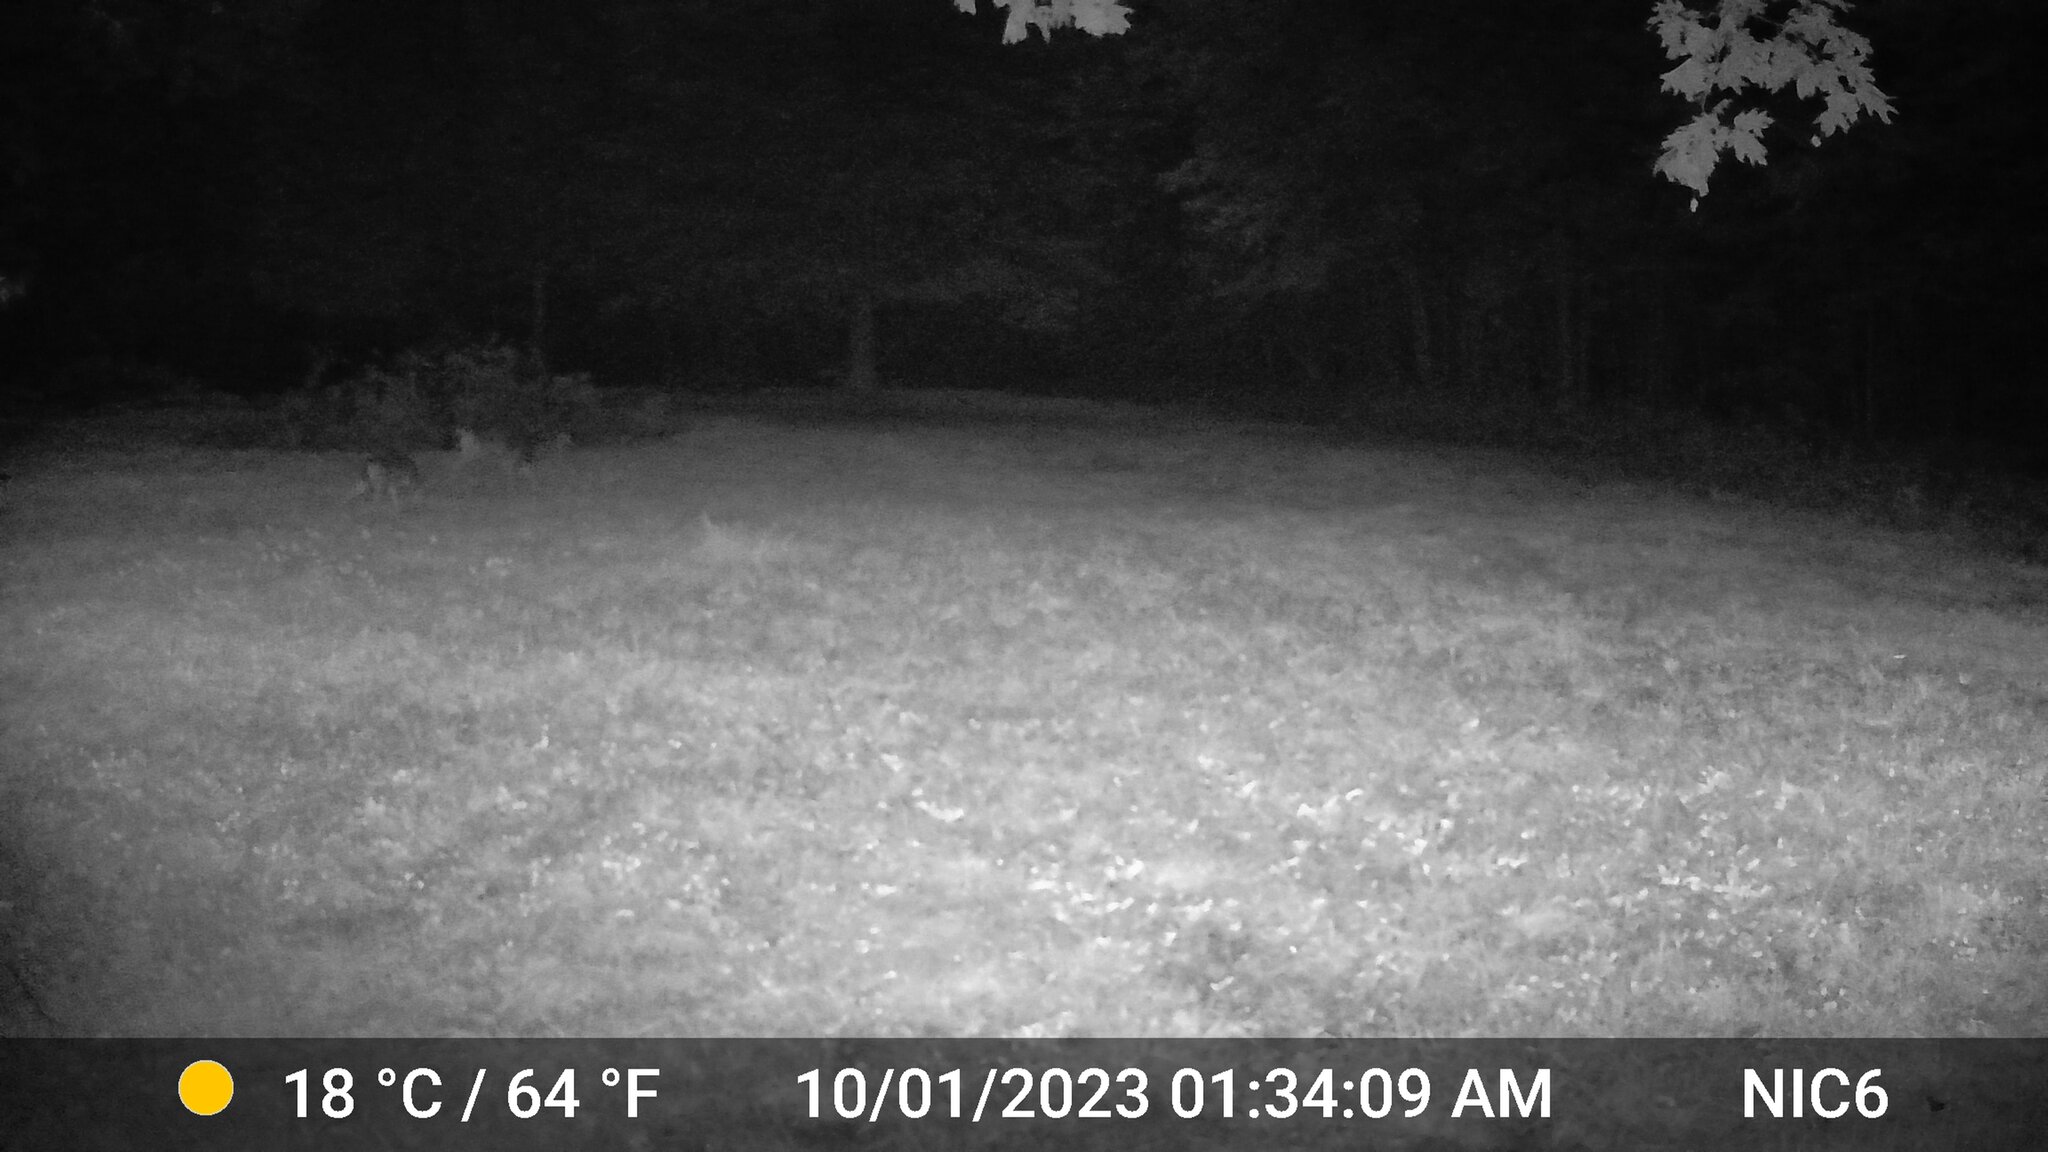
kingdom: Animalia
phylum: Chordata
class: Mammalia
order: Artiodactyla
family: Cervidae
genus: Odocoileus
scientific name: Odocoileus virginianus
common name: White-tailed deer
